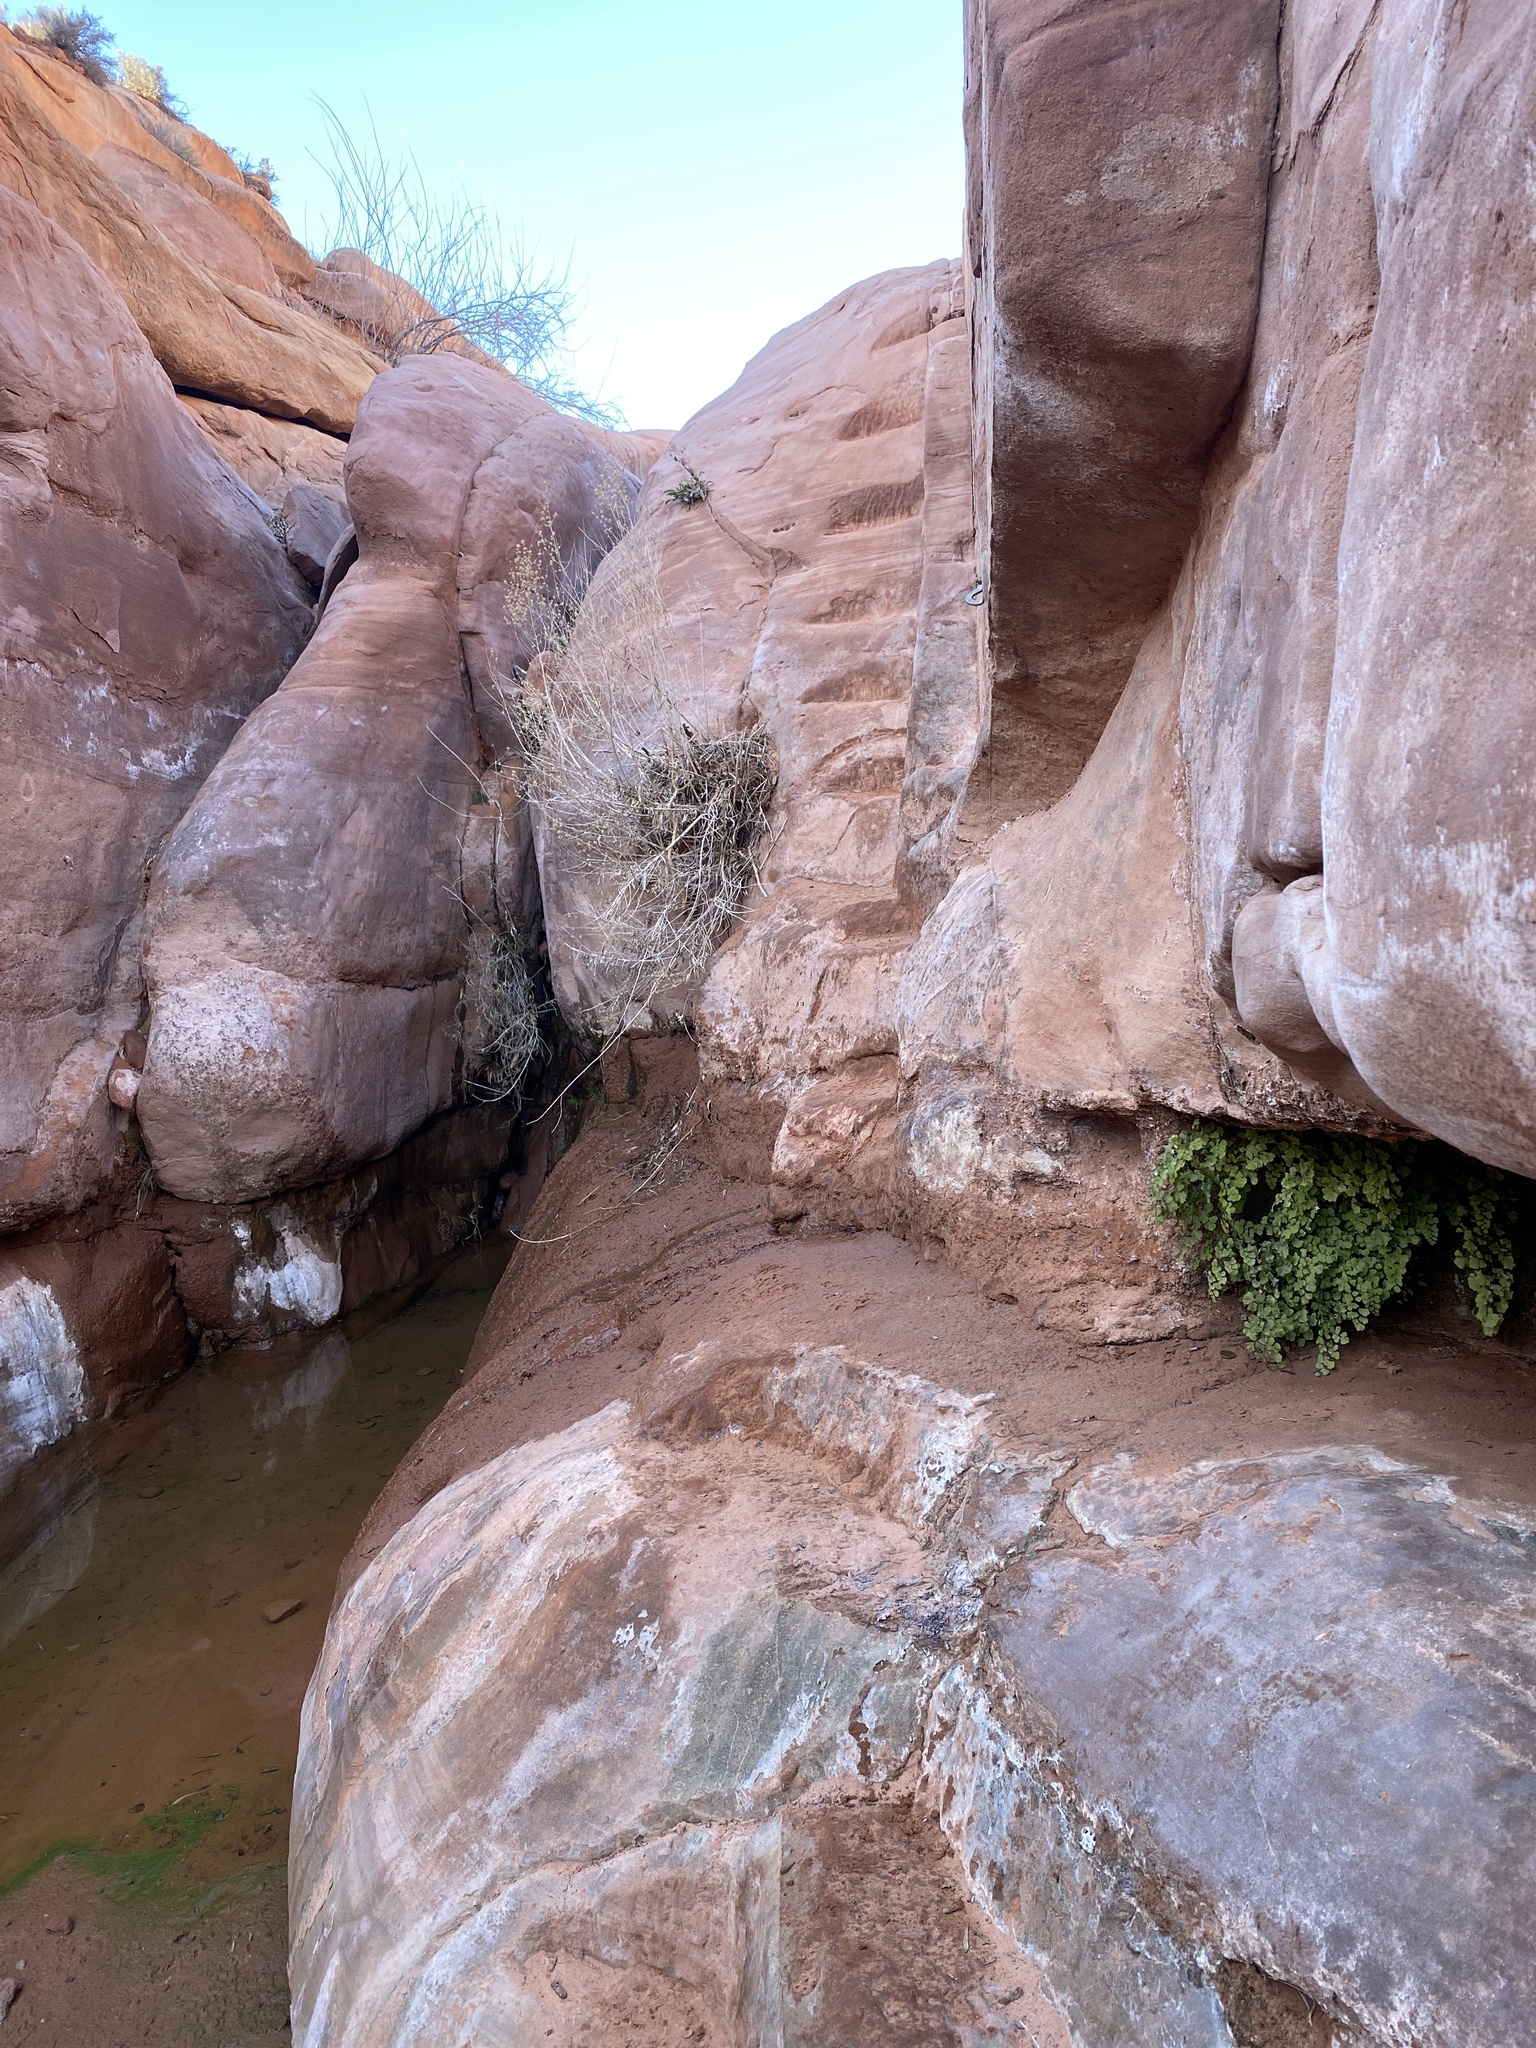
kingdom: Plantae
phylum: Tracheophyta
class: Polypodiopsida
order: Polypodiales
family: Pteridaceae
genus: Adiantum
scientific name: Adiantum capillus-veneris
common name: Maidenhair fern
